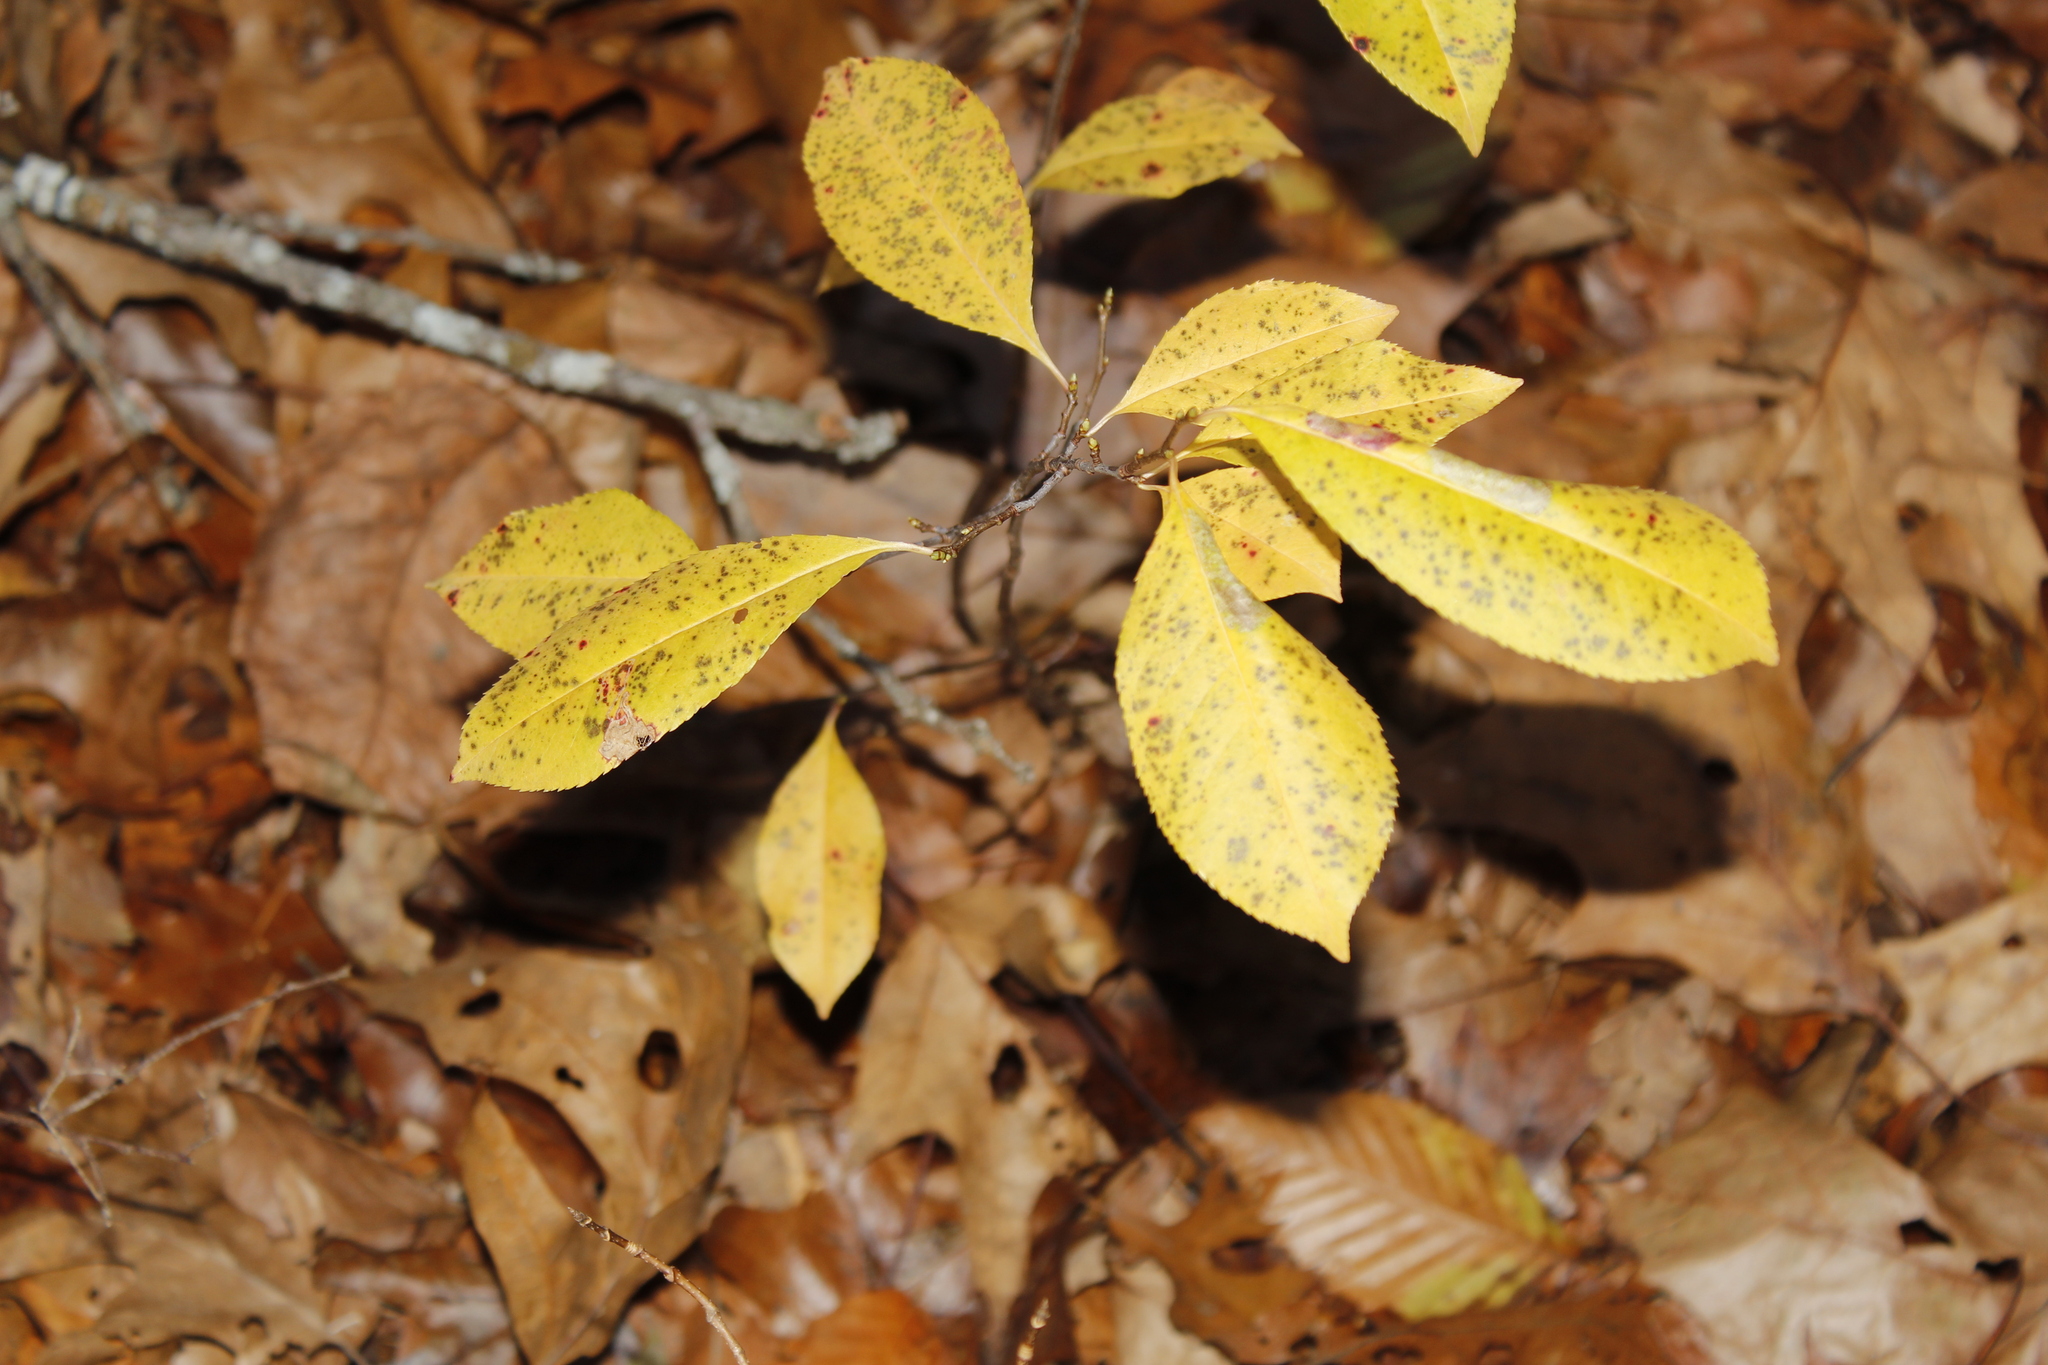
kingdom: Plantae
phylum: Tracheophyta
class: Magnoliopsida
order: Rosales
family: Rosaceae
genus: Prunus
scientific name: Prunus serotina
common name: Black cherry
